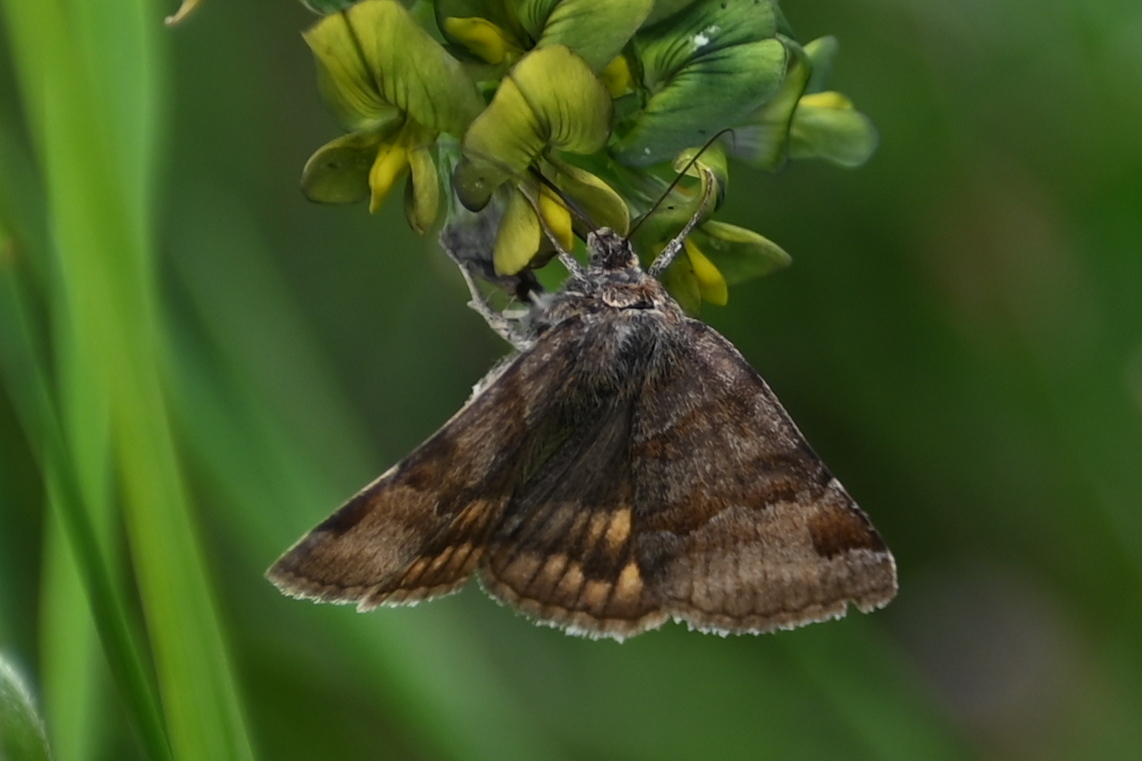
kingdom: Animalia
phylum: Arthropoda
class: Insecta
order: Lepidoptera
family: Erebidae
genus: Euclidia
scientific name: Euclidia glyphica
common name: Burnet companion
